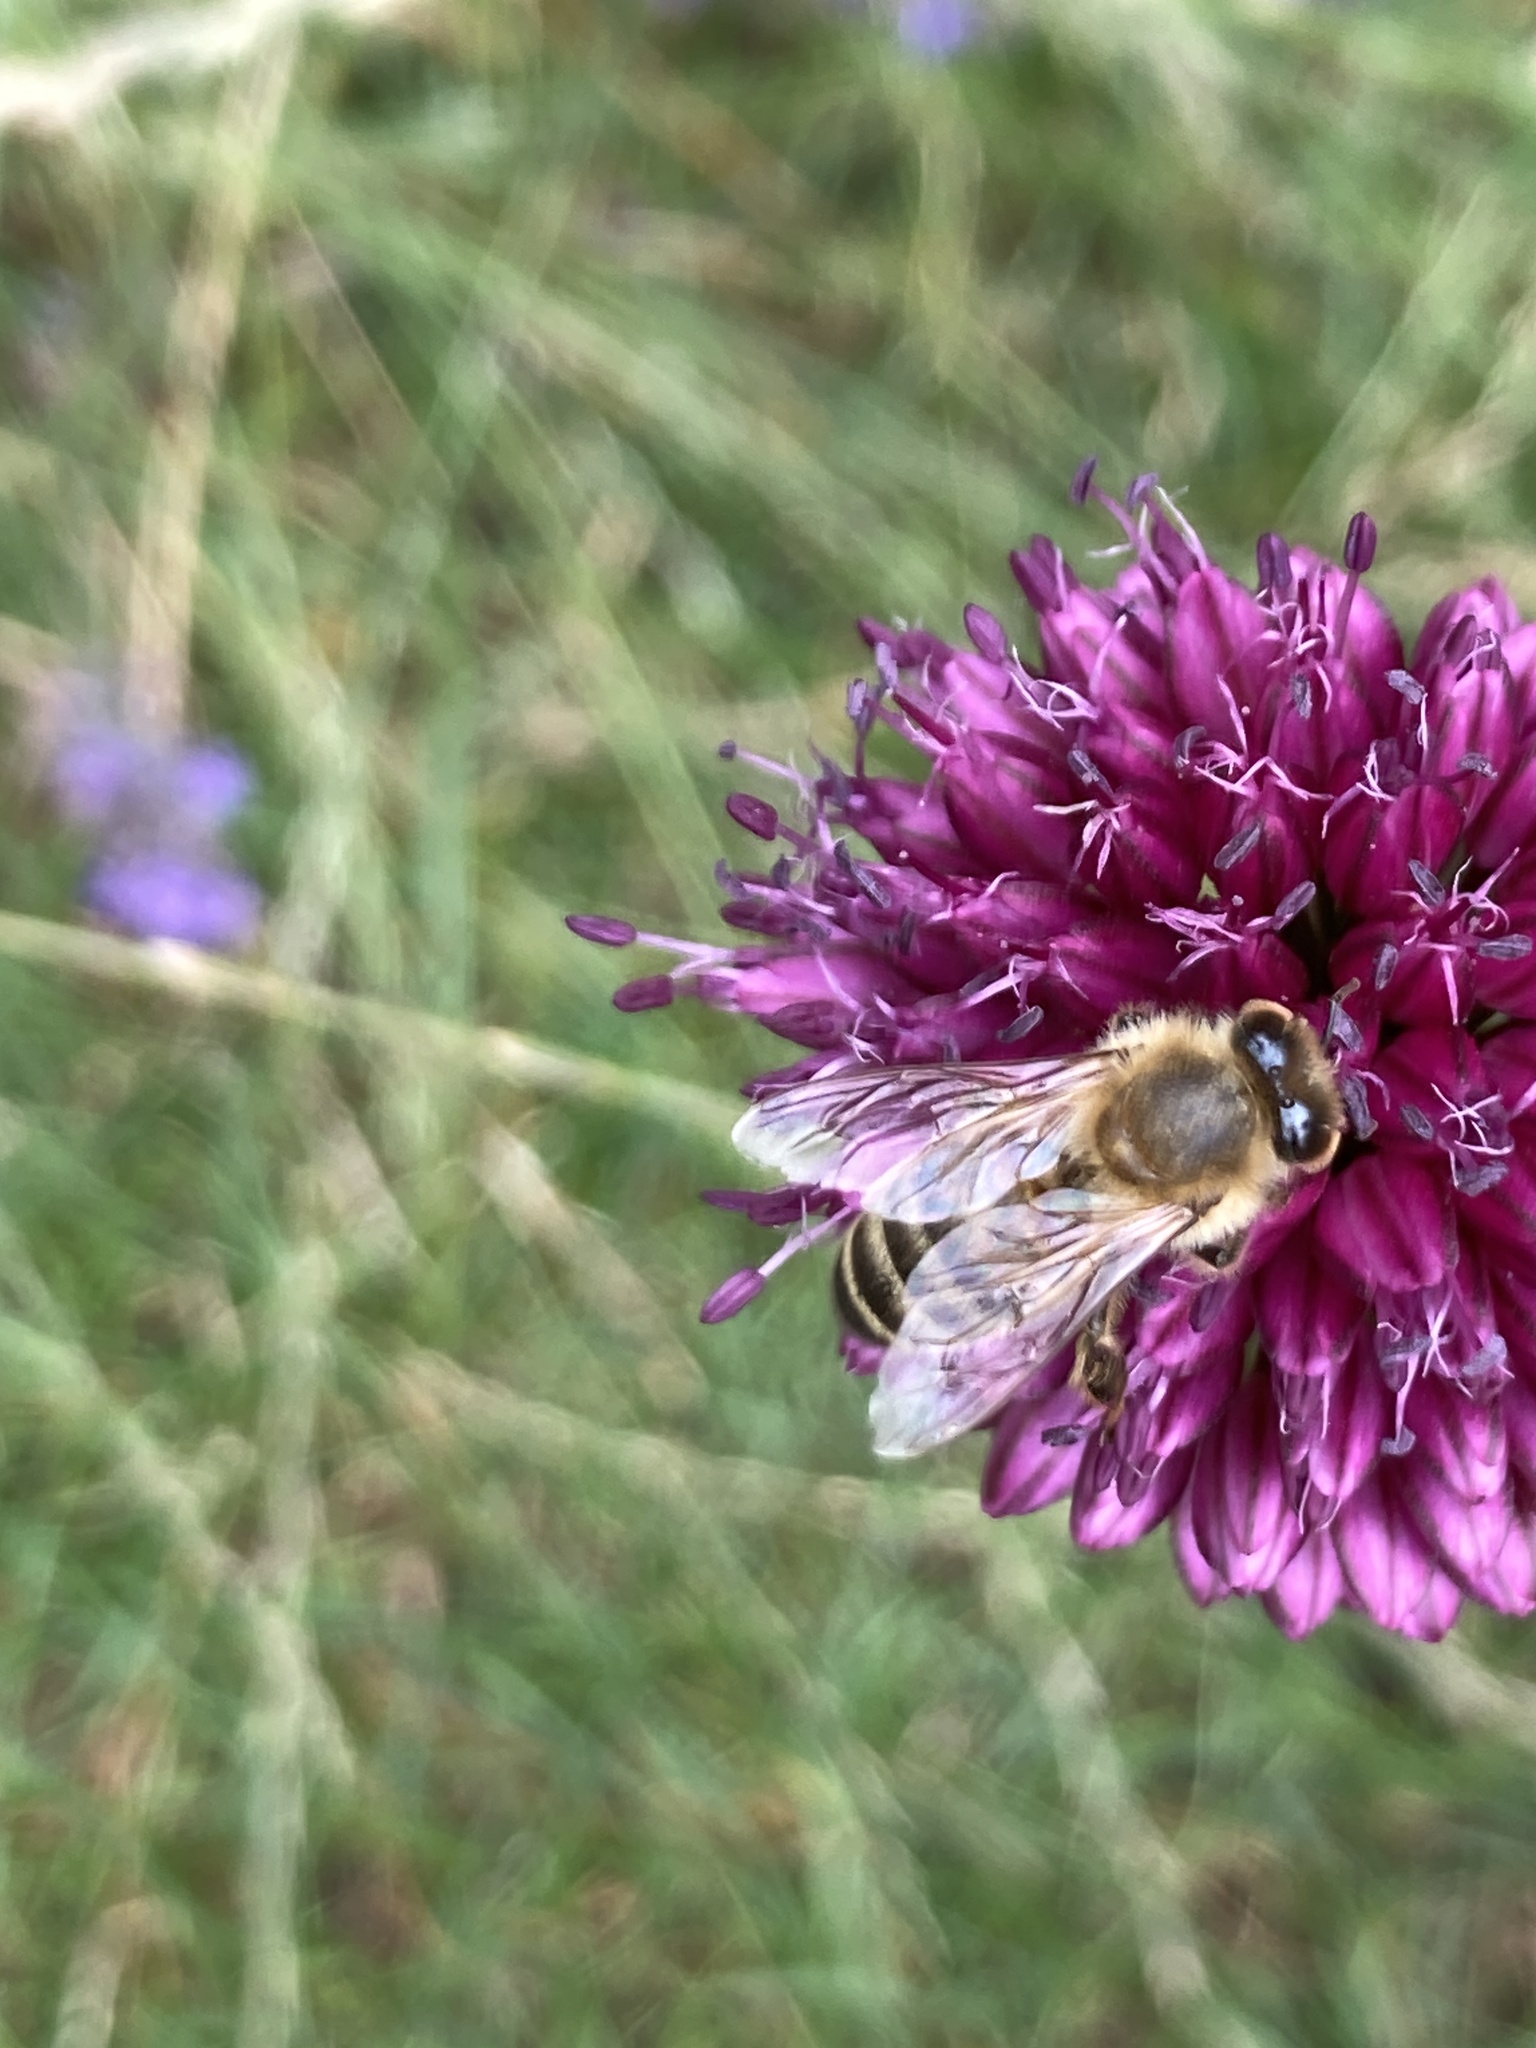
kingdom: Animalia
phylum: Arthropoda
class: Insecta
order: Hymenoptera
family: Apidae
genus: Apis
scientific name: Apis mellifera
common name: Honey bee
